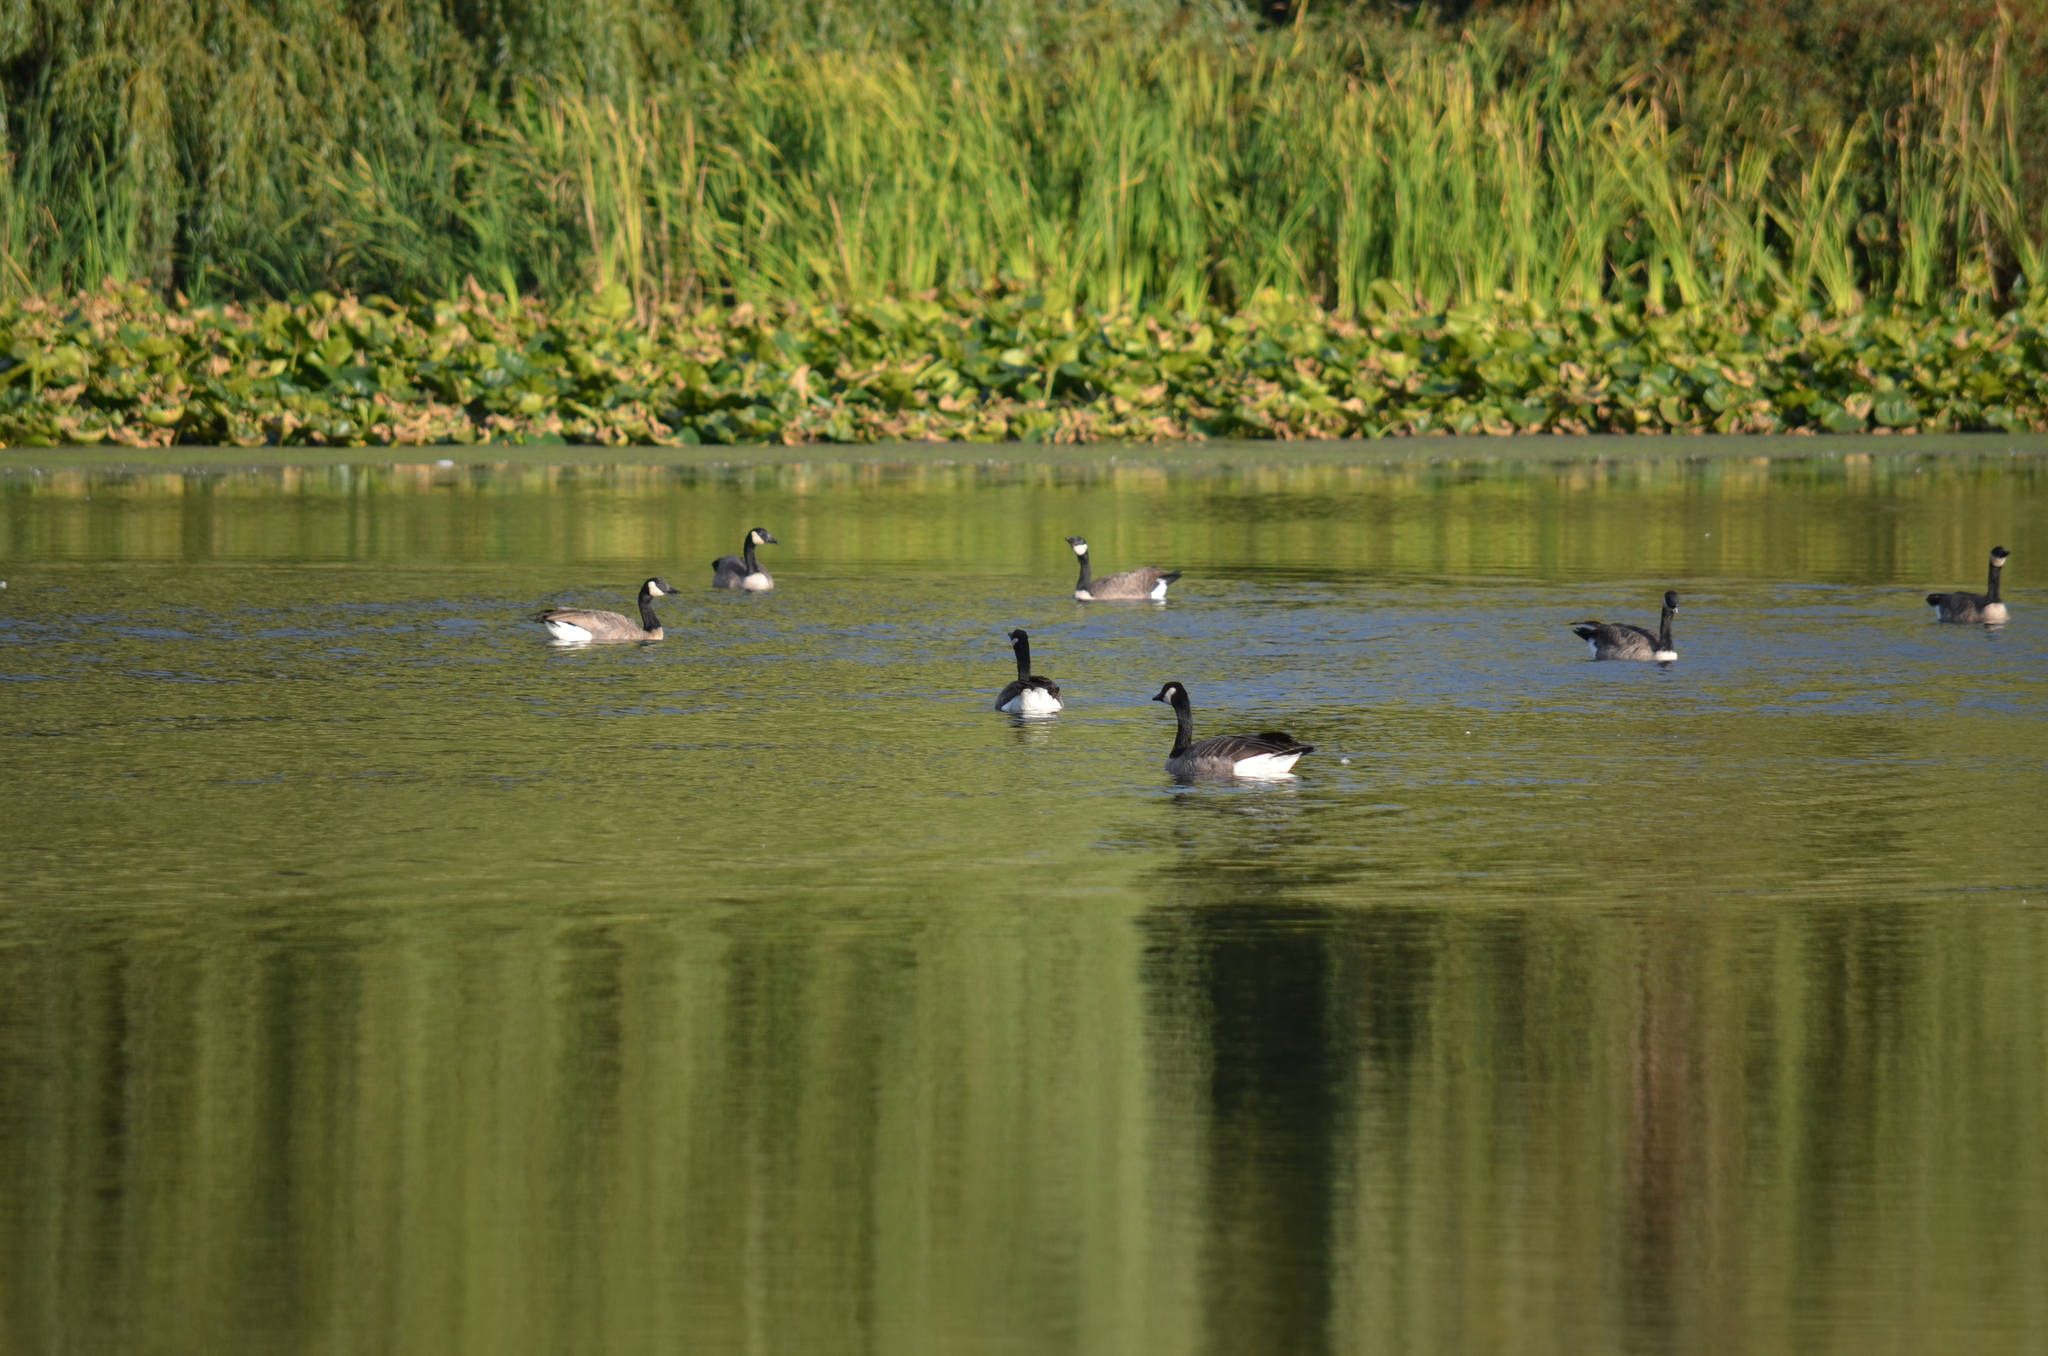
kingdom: Animalia
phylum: Chordata
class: Aves
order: Anseriformes
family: Anatidae
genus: Branta
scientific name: Branta canadensis
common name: Canada goose
